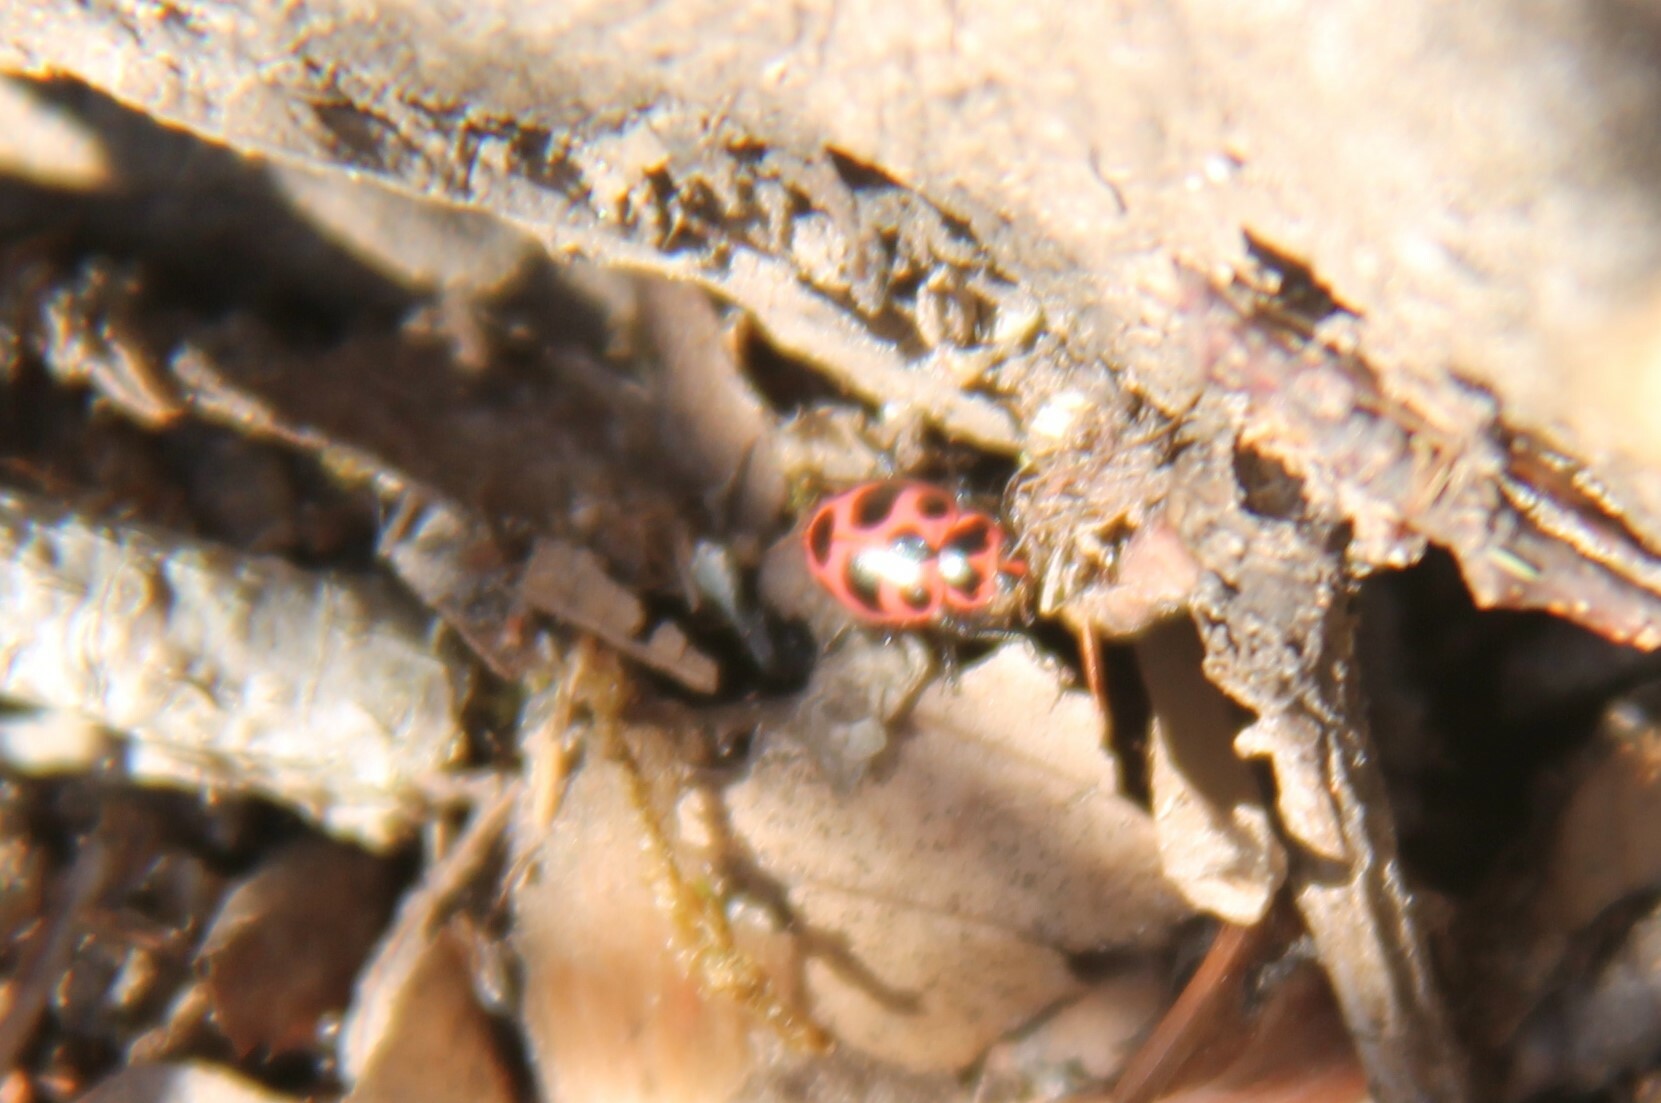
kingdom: Animalia
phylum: Arthropoda
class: Insecta
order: Coleoptera
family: Coccinellidae
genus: Coleomegilla
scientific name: Coleomegilla maculata
